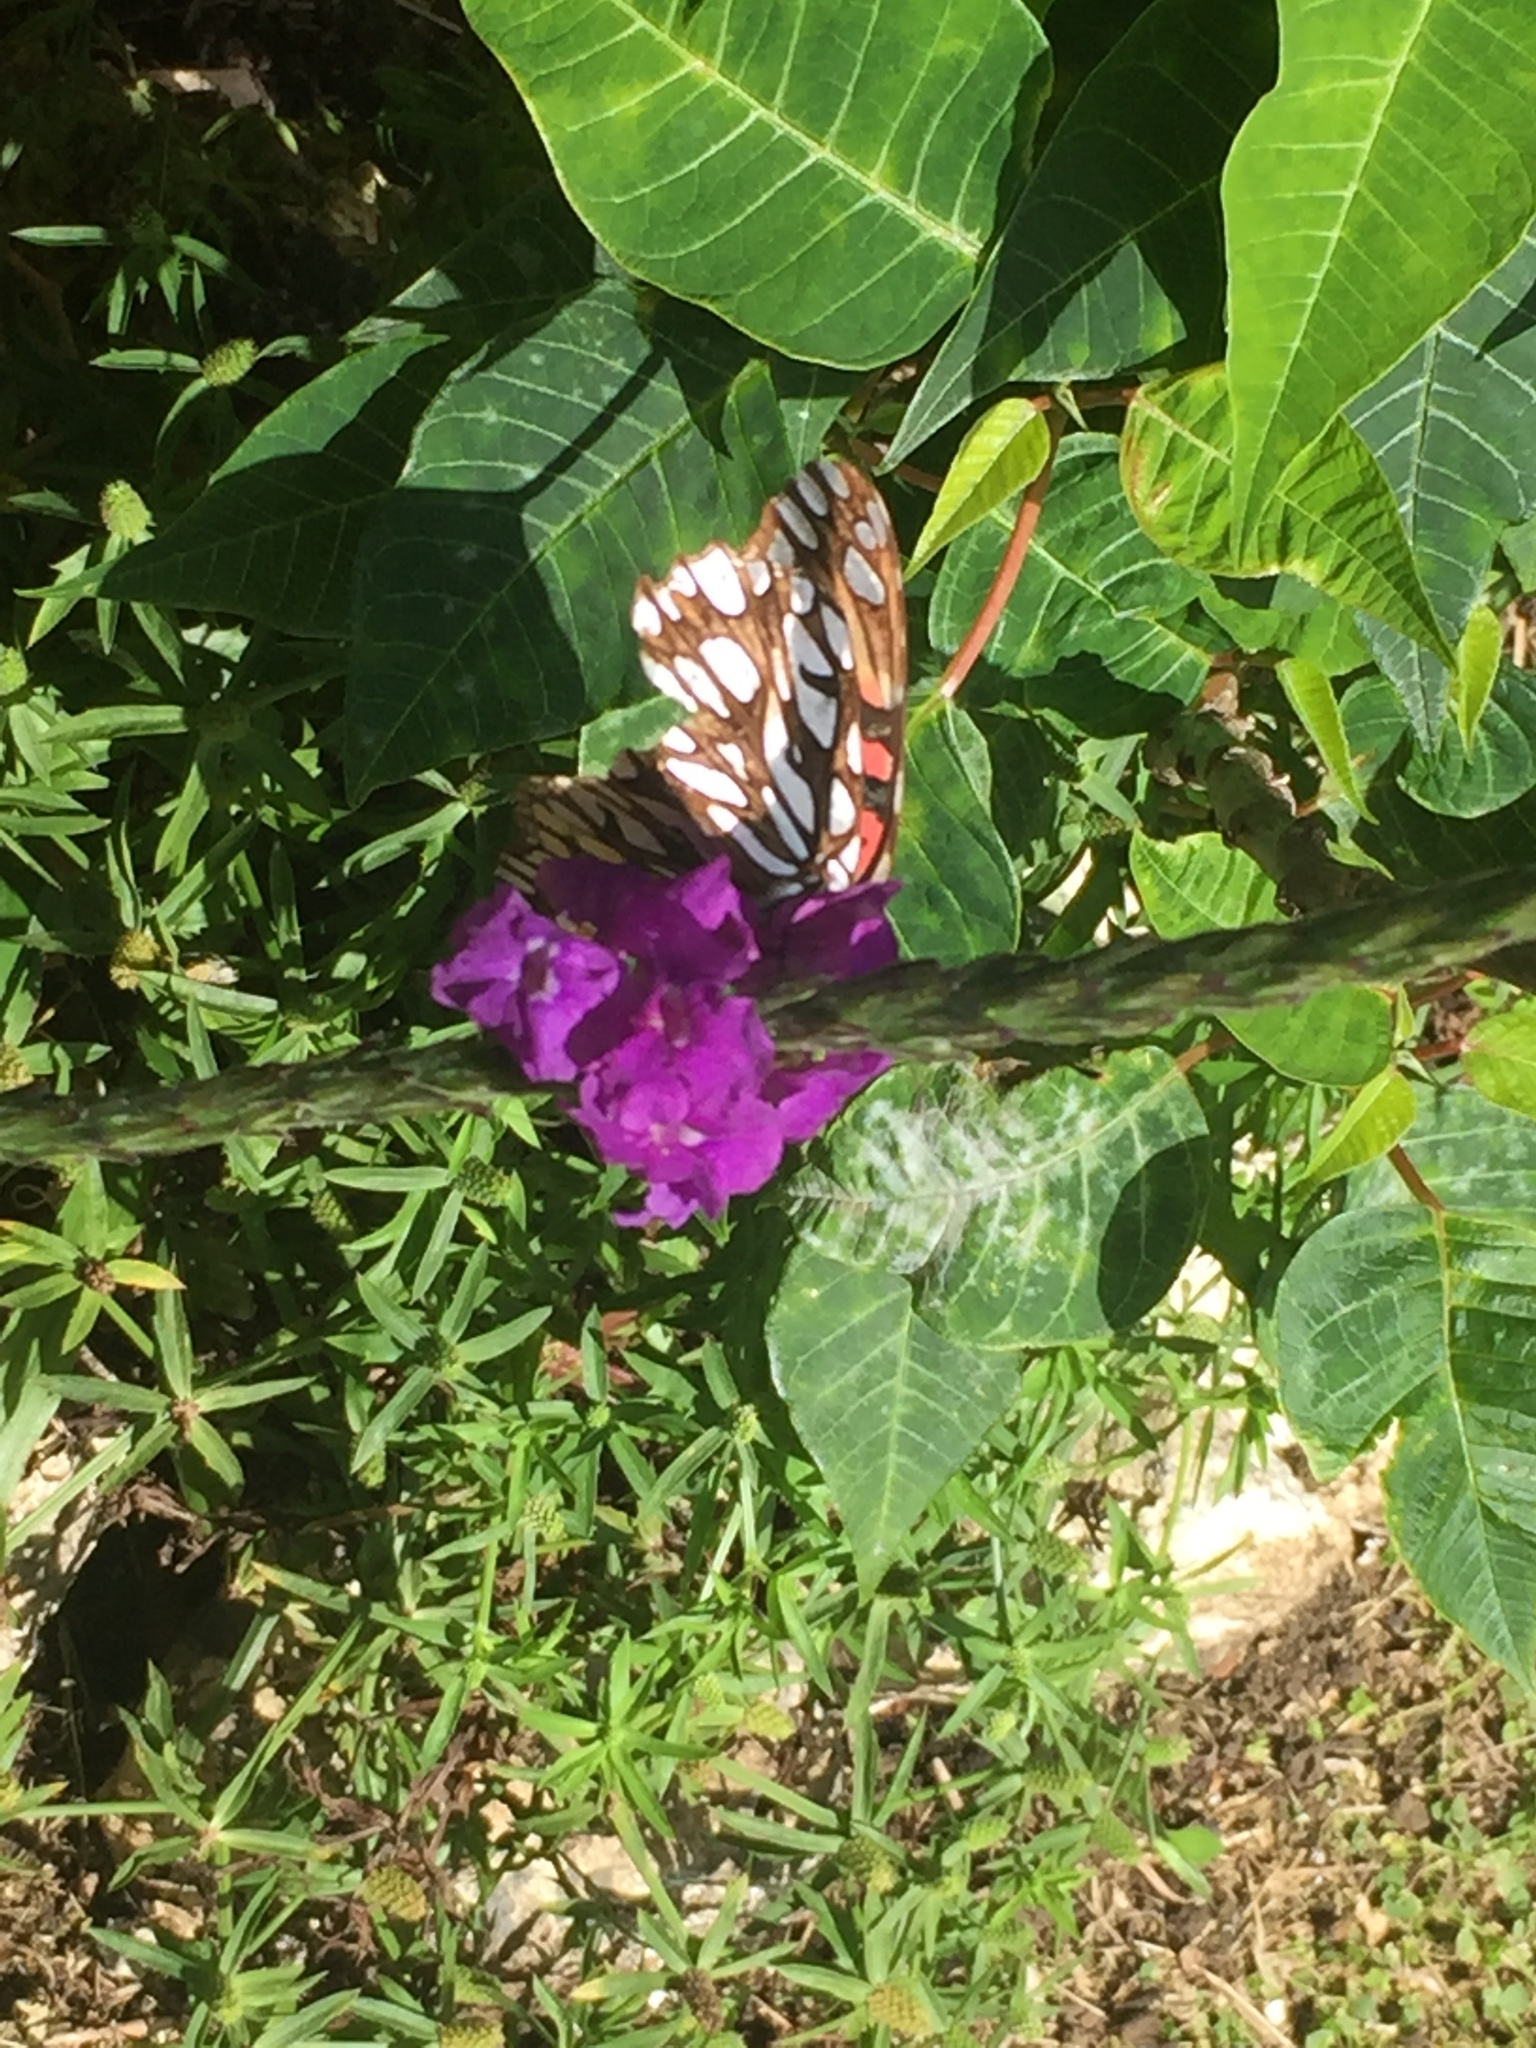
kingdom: Animalia
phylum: Arthropoda
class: Insecta
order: Lepidoptera
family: Nymphalidae
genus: Dione
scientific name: Dione moneta
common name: Mexican silverspot
